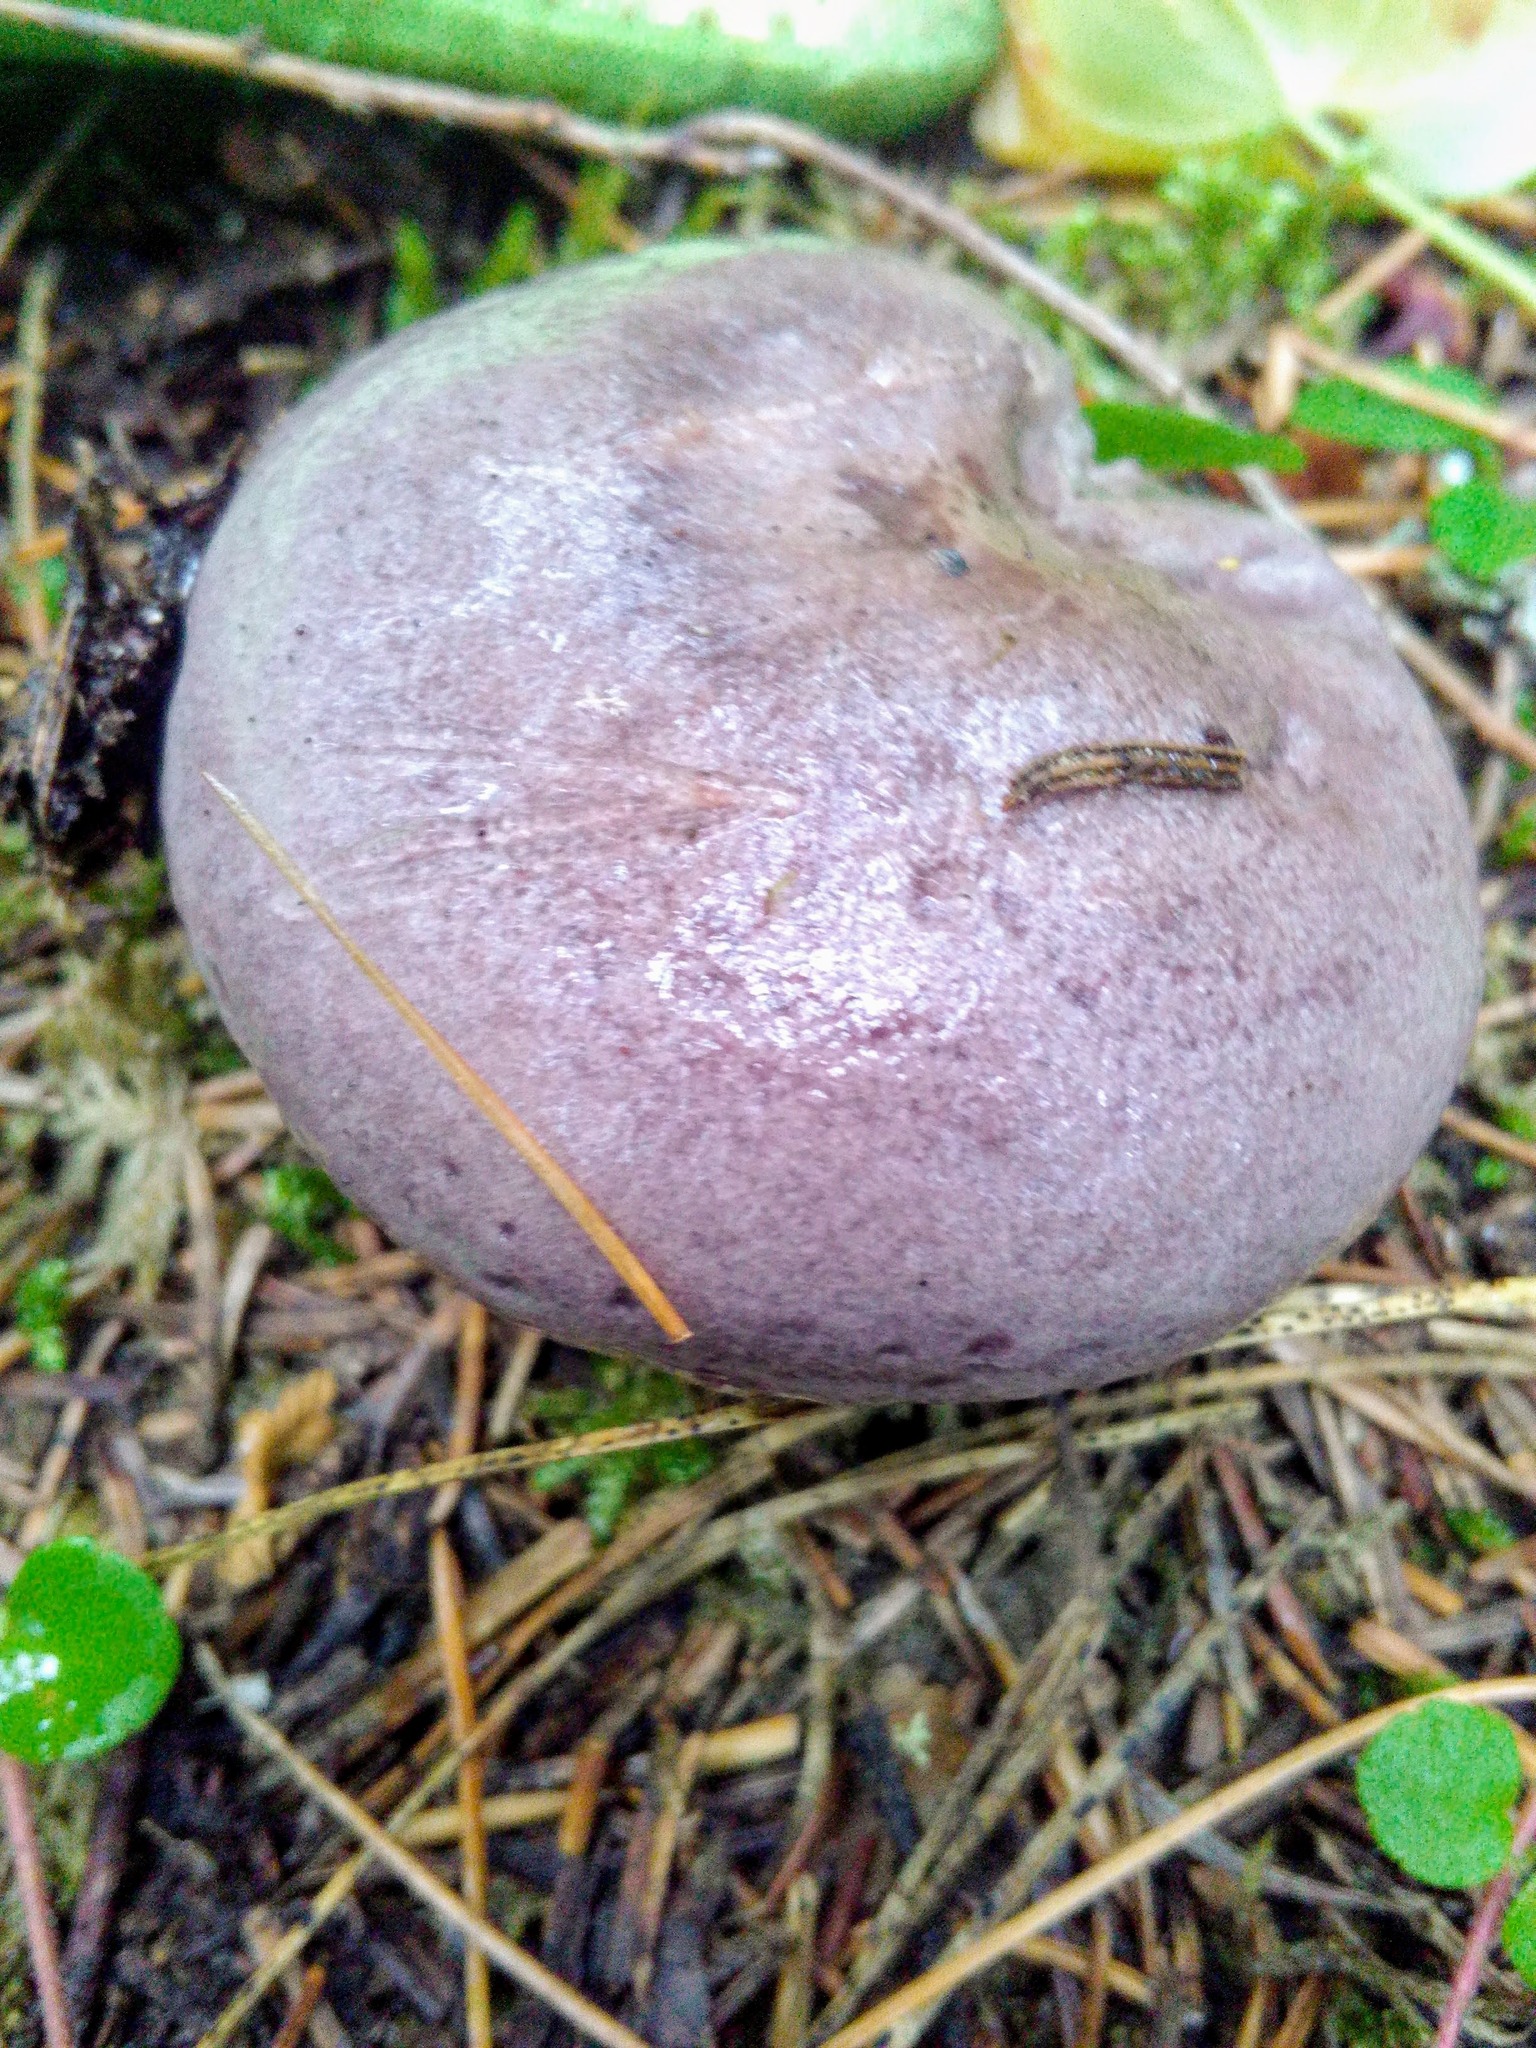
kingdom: Fungi
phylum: Basidiomycota
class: Agaricomycetes
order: Russulales
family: Russulaceae
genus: Lactarius
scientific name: Lactarius trivialis
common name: Tacked milkcap
